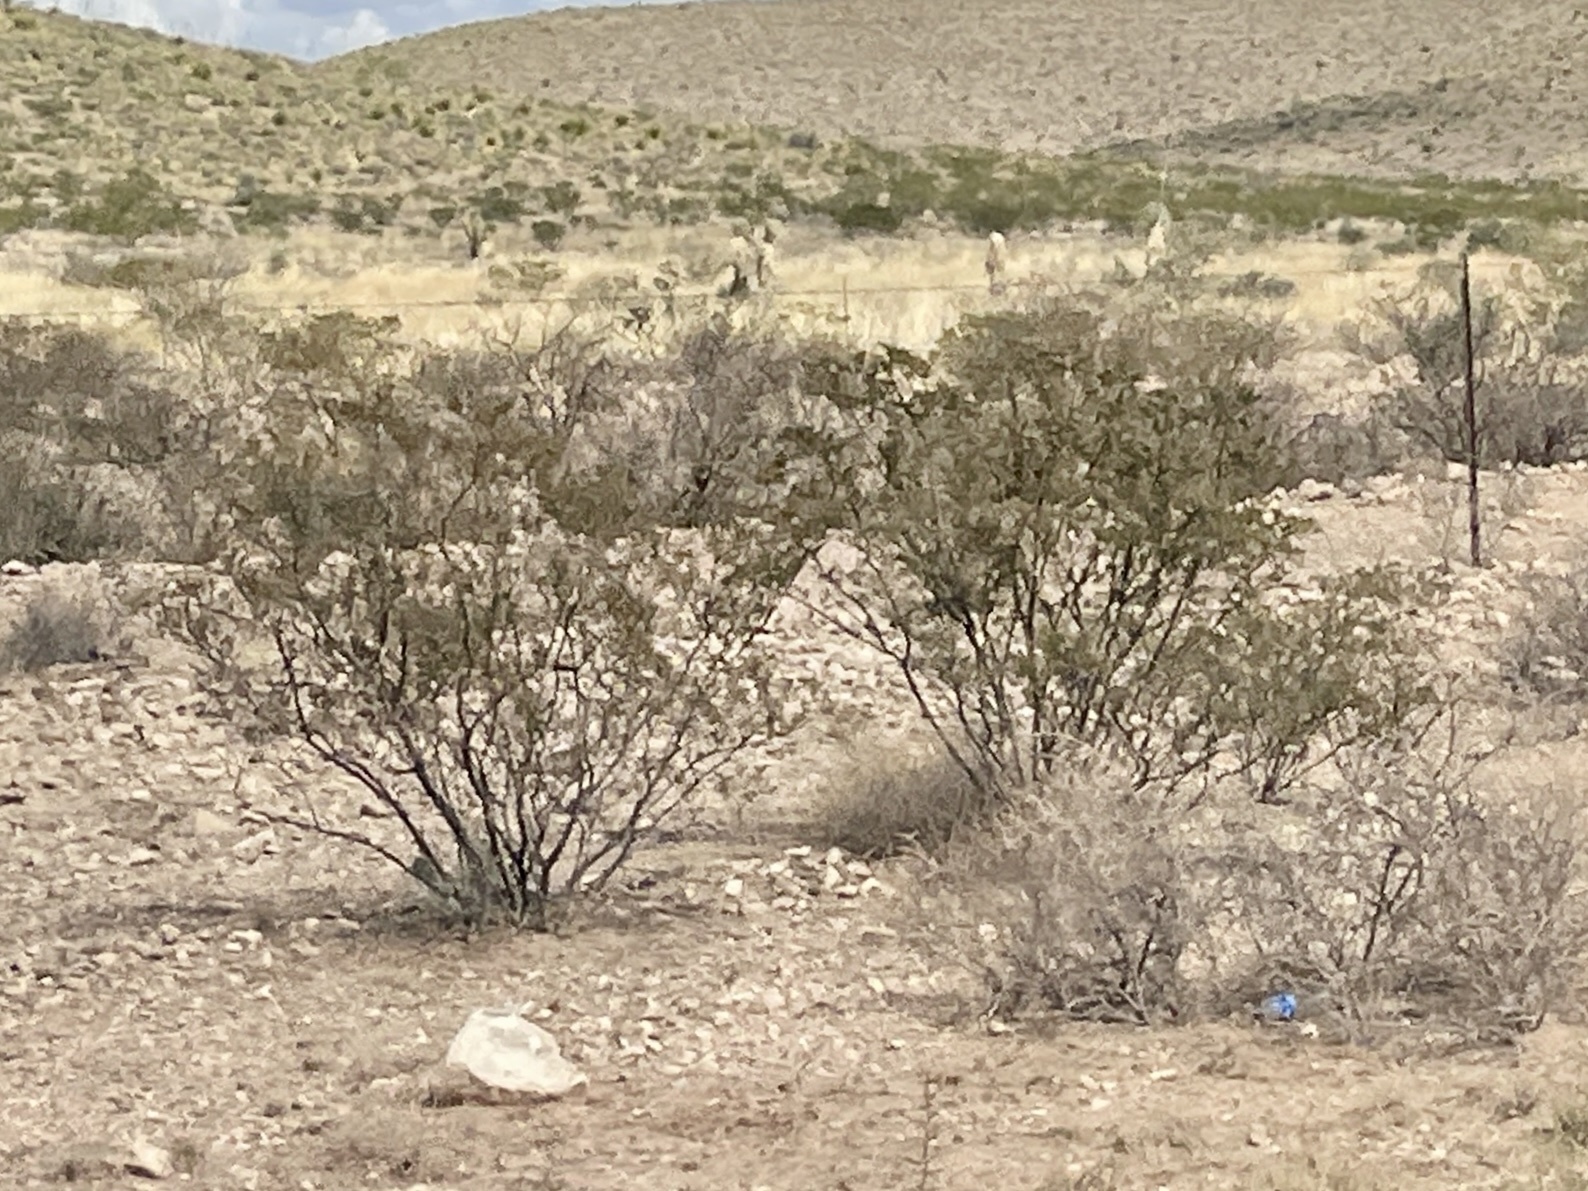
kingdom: Plantae
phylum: Tracheophyta
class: Magnoliopsida
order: Zygophyllales
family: Zygophyllaceae
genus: Larrea
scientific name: Larrea tridentata
